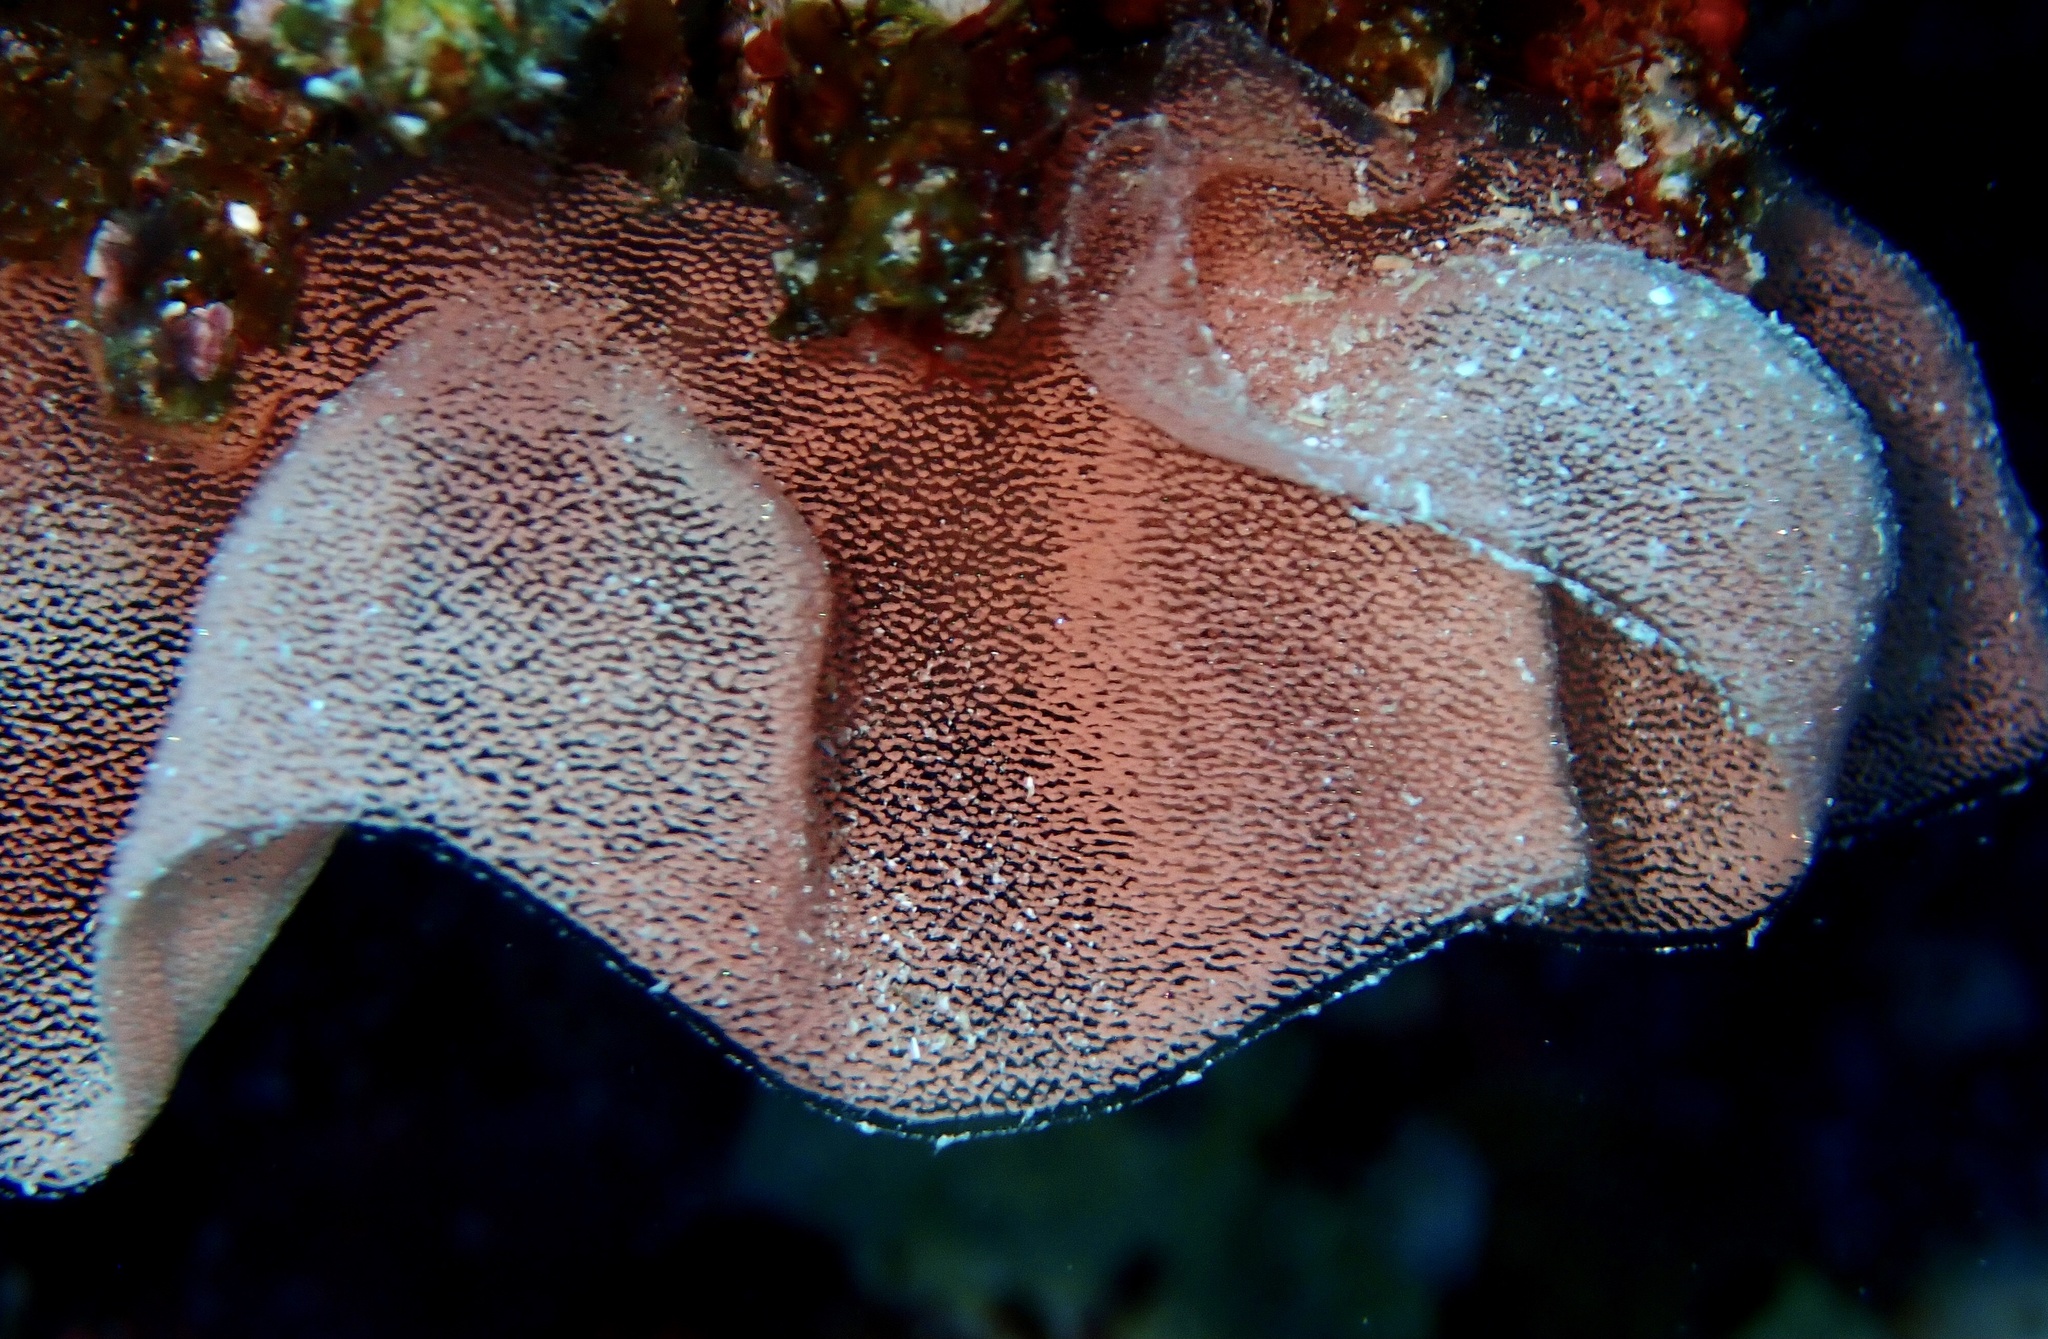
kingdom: Animalia
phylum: Mollusca
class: Gastropoda
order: Nudibranchia
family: Hexabranchidae
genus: Hexabranchus
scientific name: Hexabranchus sanguineus
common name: Spanish dancer
